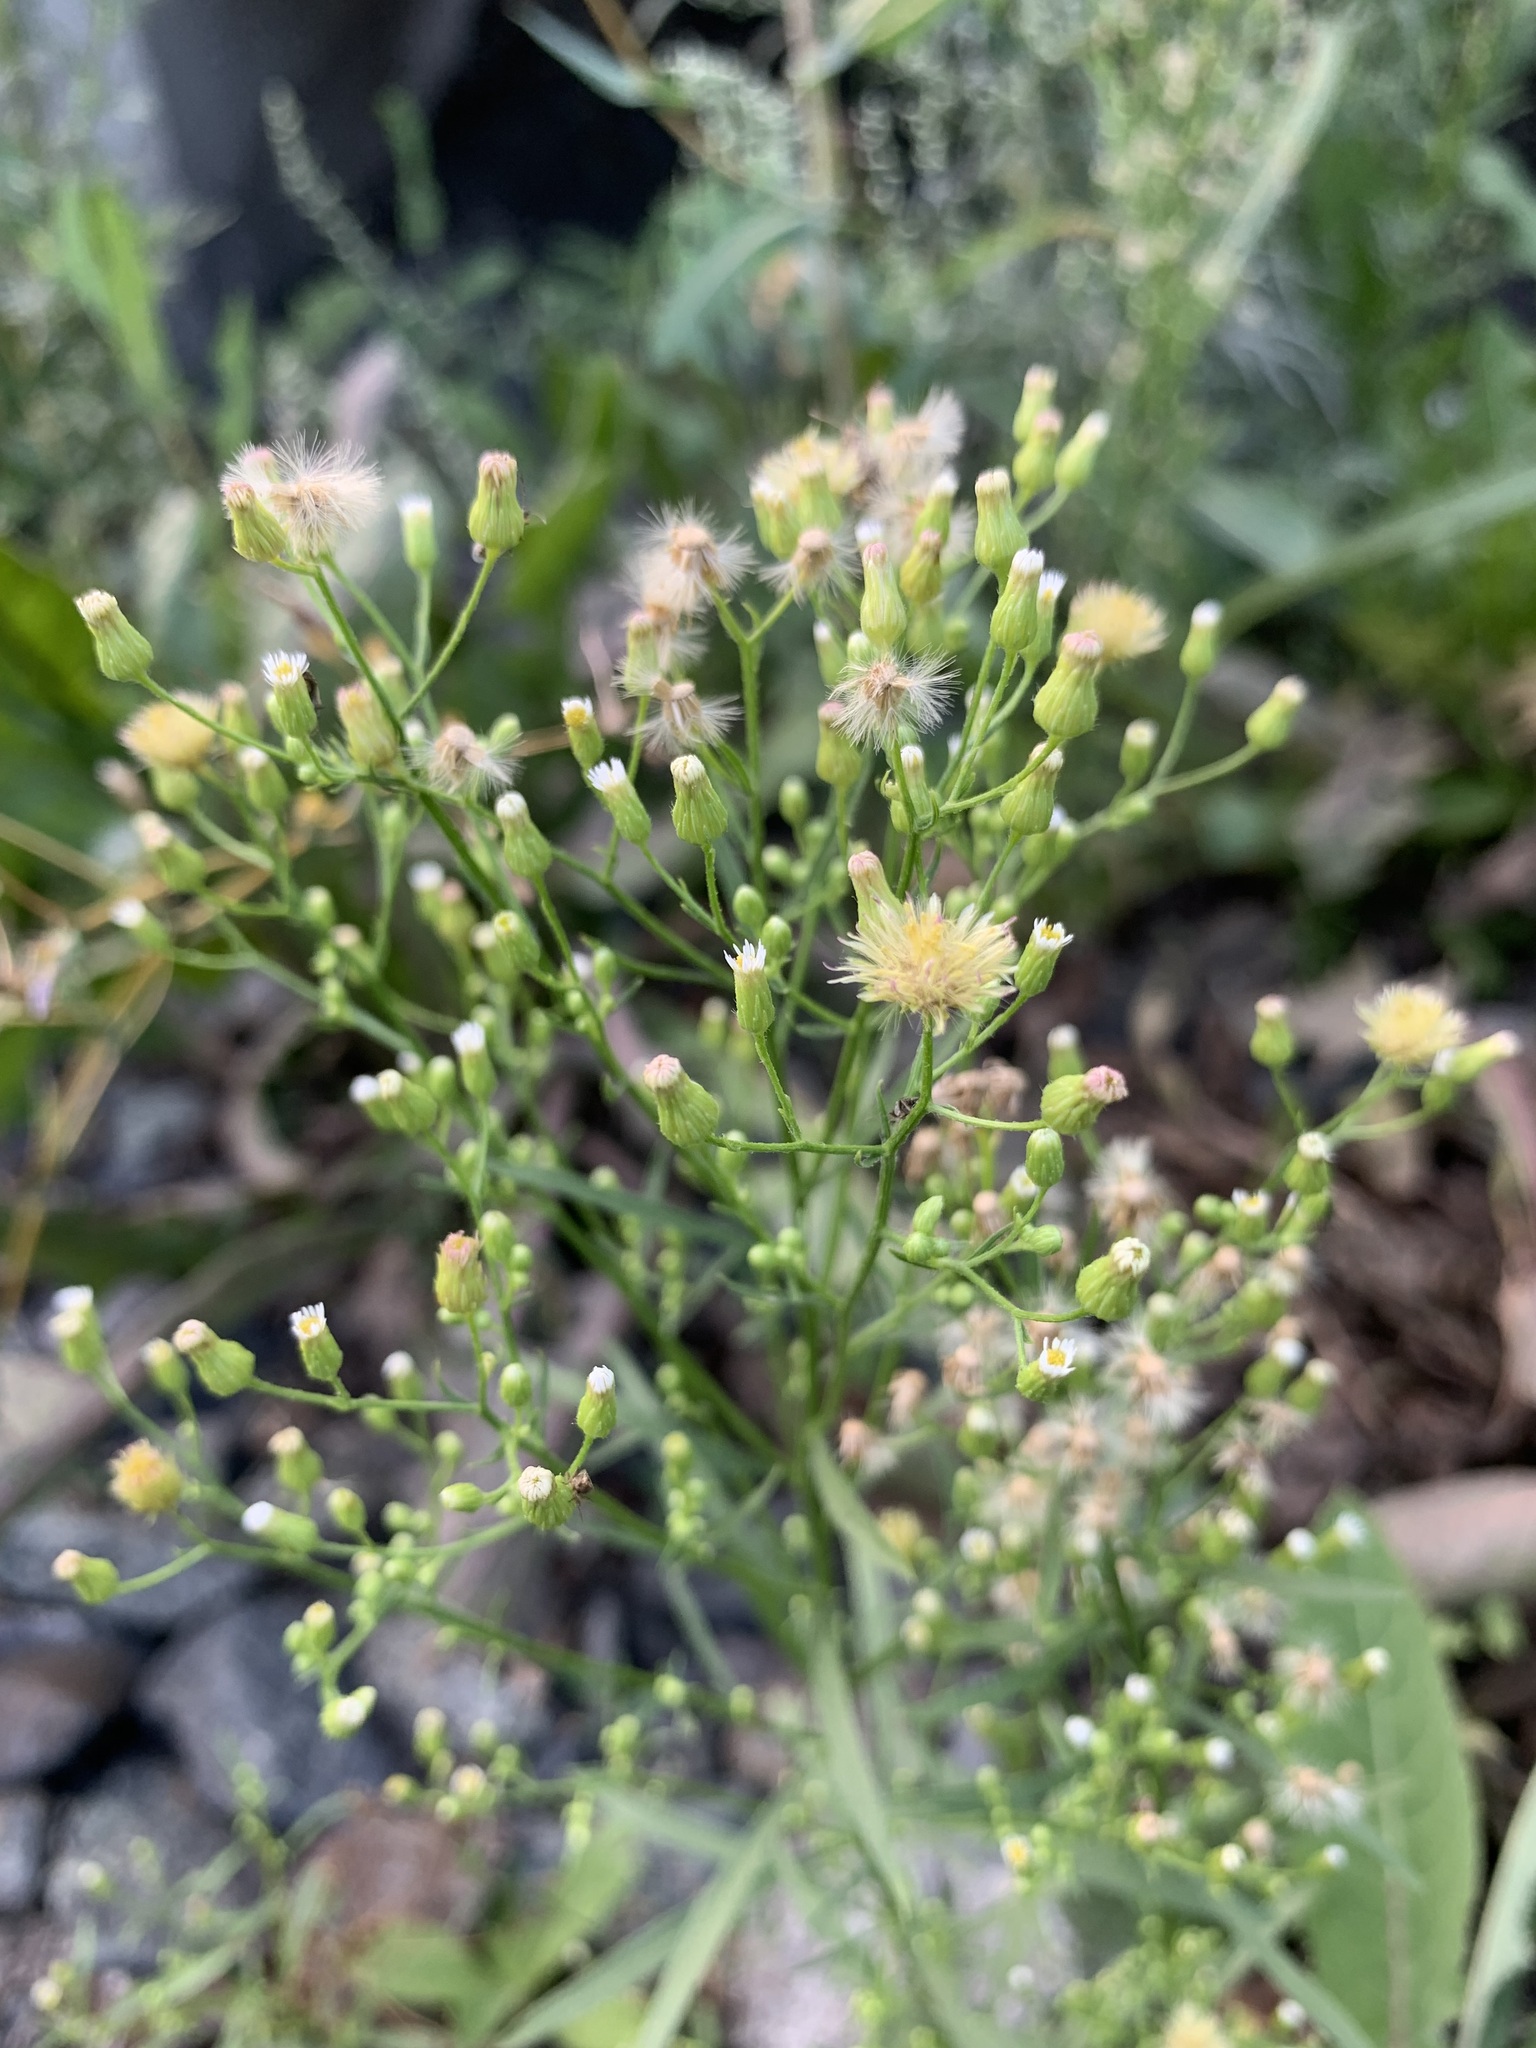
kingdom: Plantae
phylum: Tracheophyta
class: Magnoliopsida
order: Asterales
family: Asteraceae
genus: Erigeron
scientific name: Erigeron canadensis
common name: Canadian fleabane
